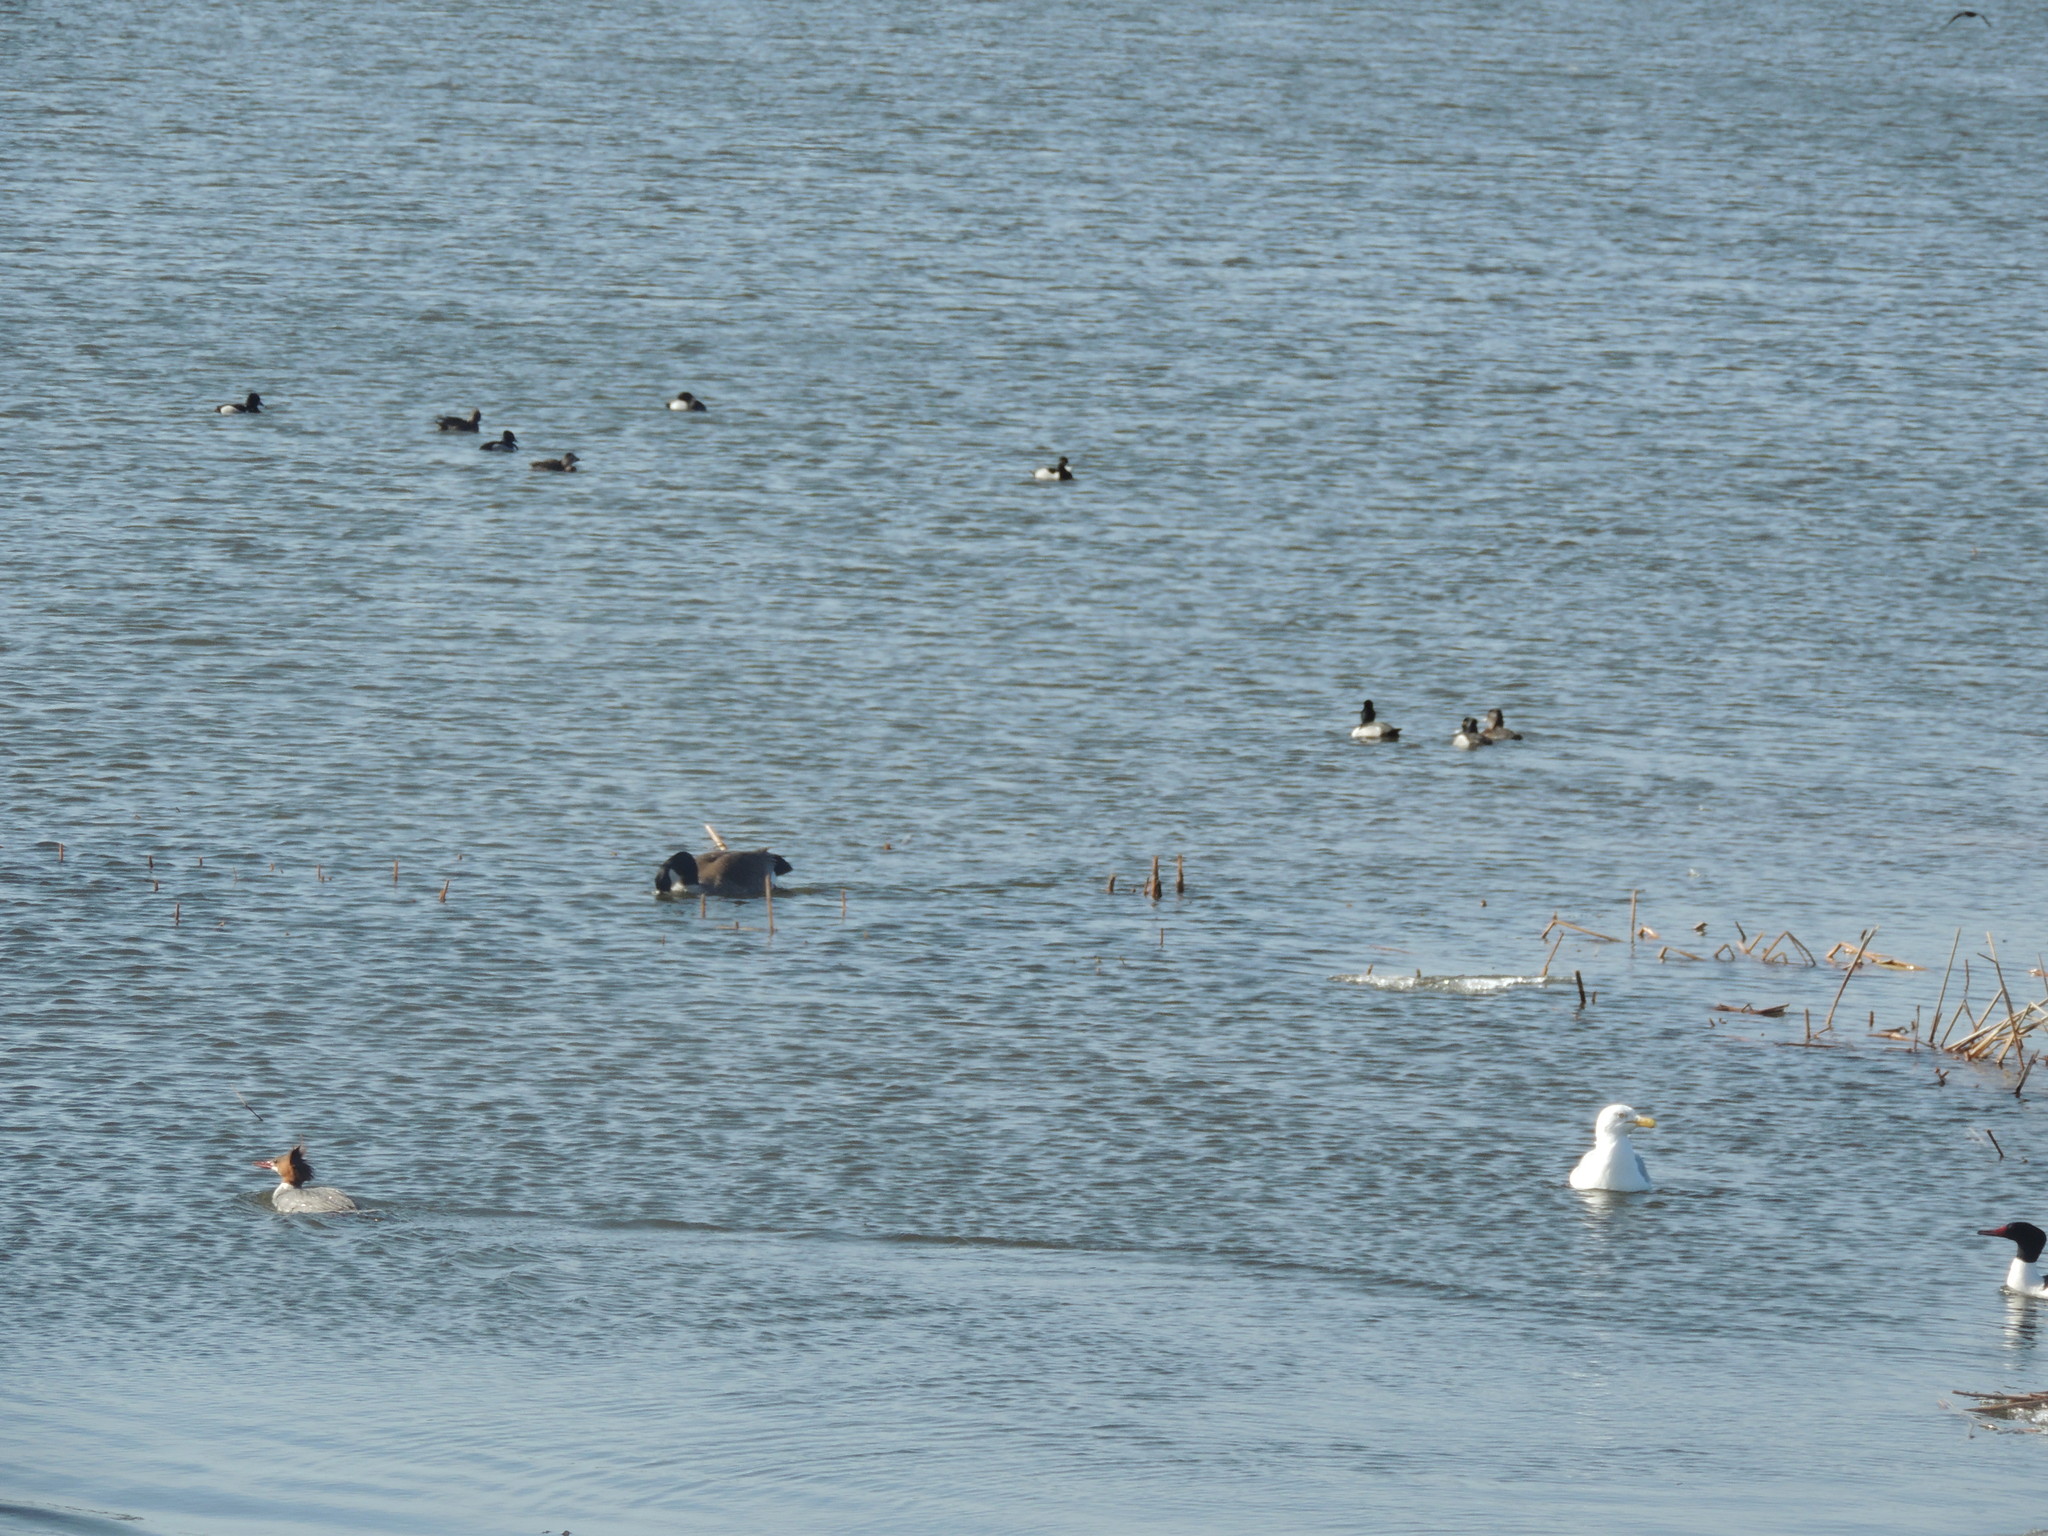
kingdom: Animalia
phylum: Chordata
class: Aves
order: Anseriformes
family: Anatidae
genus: Mergus
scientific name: Mergus merganser
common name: Common merganser
